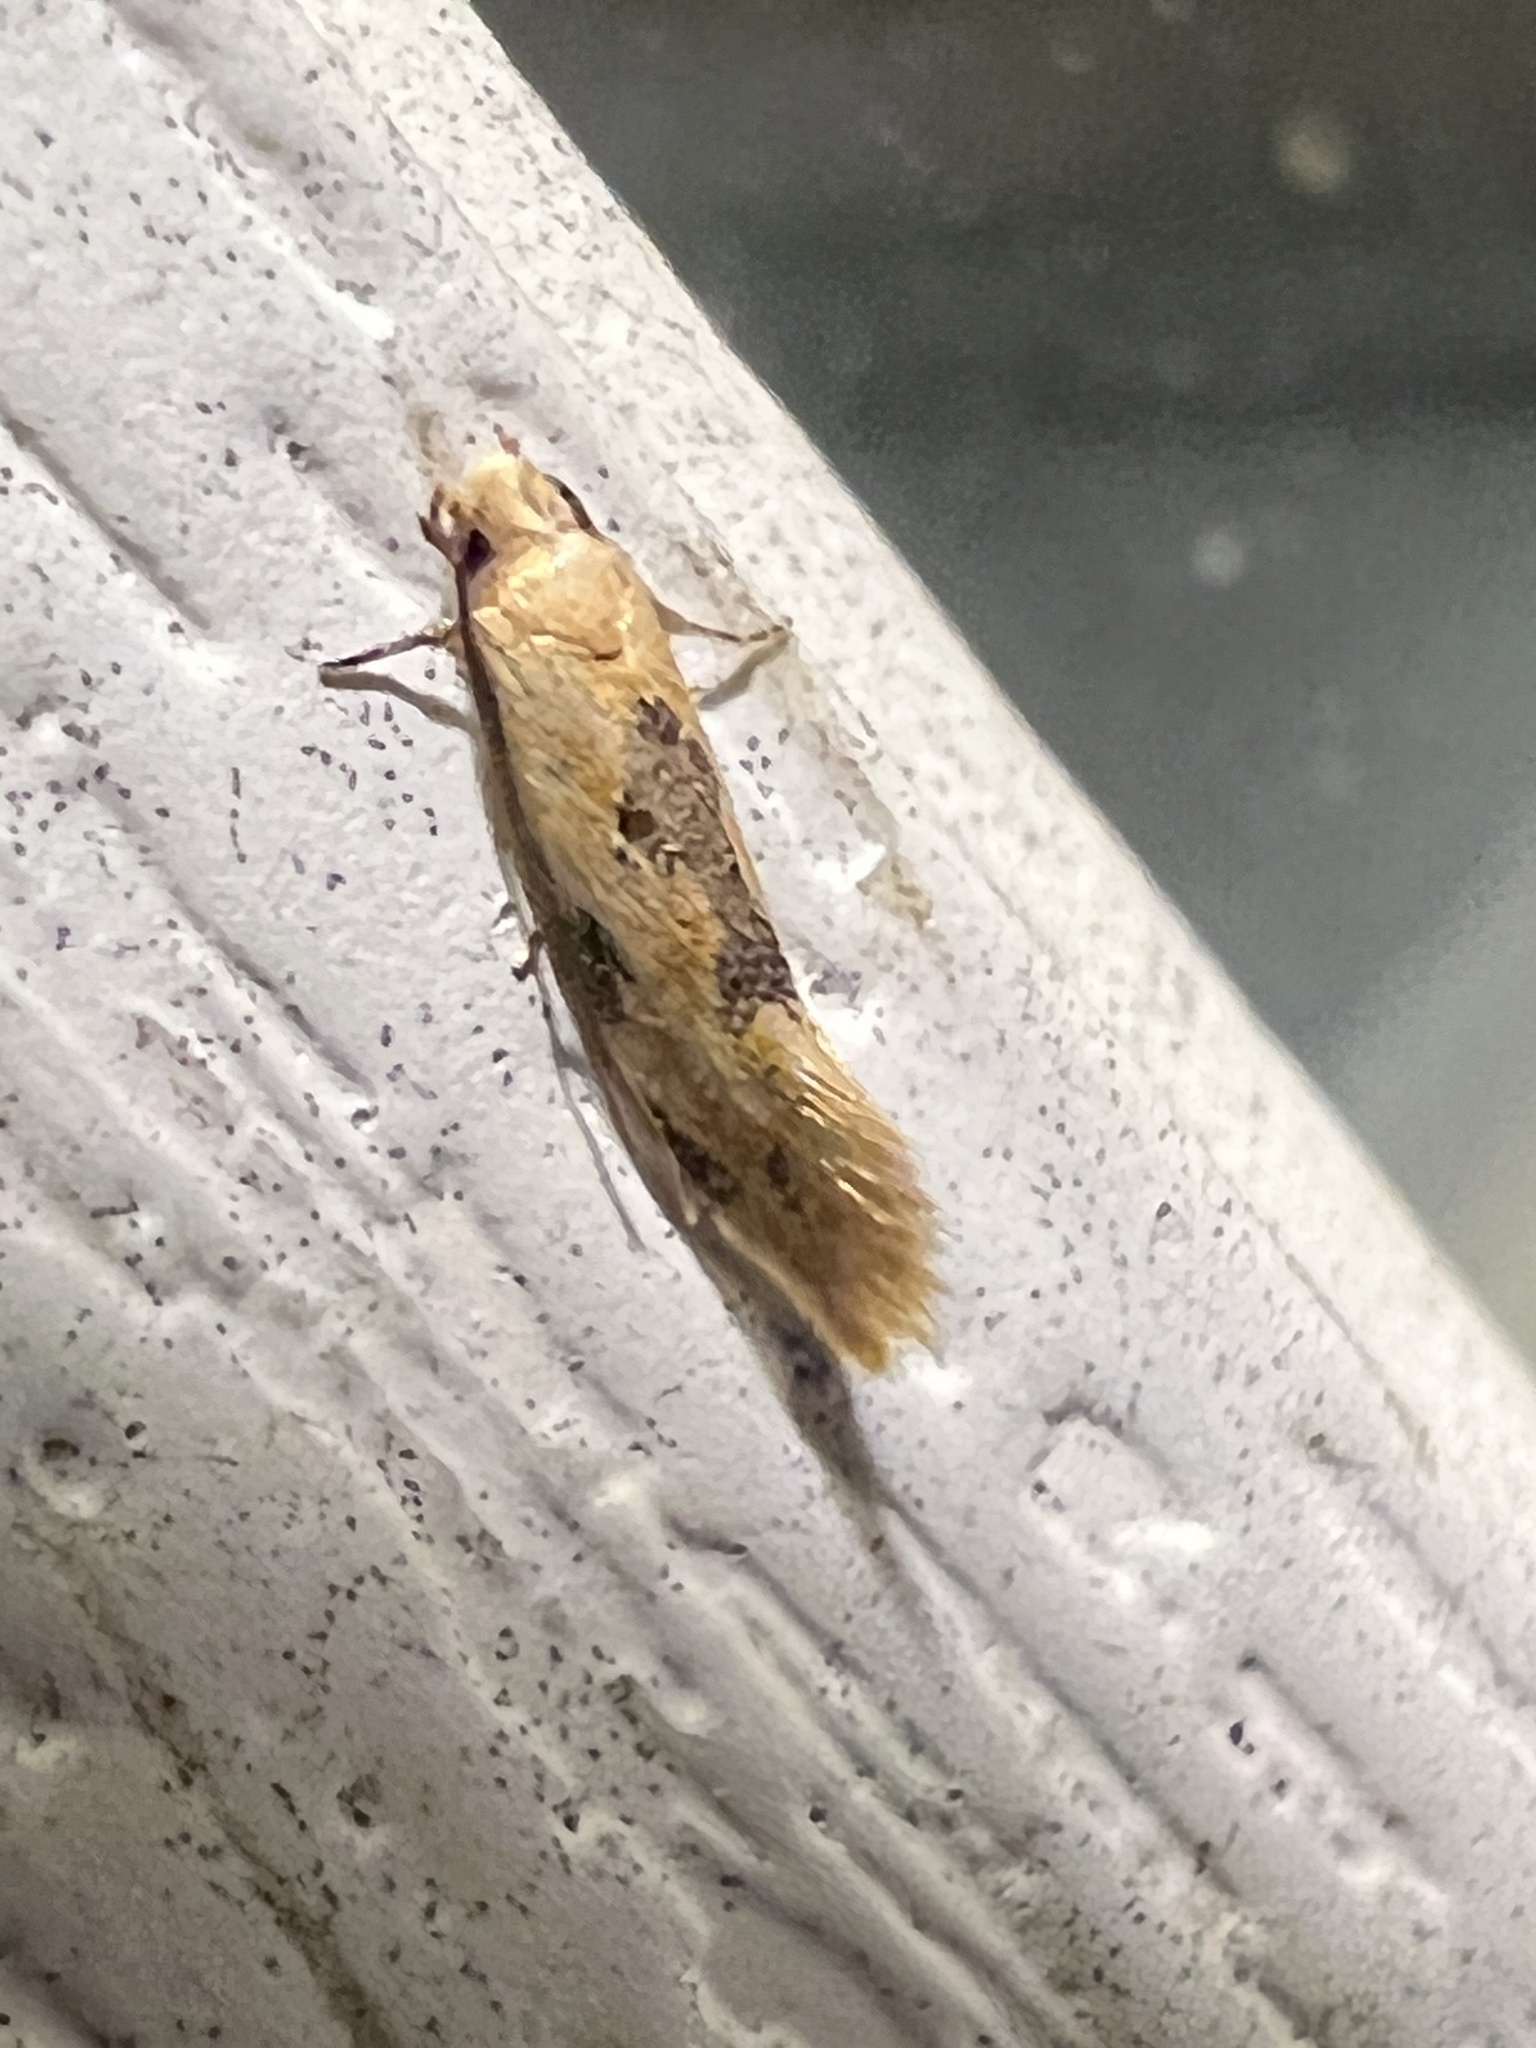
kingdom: Animalia
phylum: Arthropoda
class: Insecta
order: Lepidoptera
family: Meessiidae
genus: Hybroma
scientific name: Hybroma servulella
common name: Yellow wave moth
